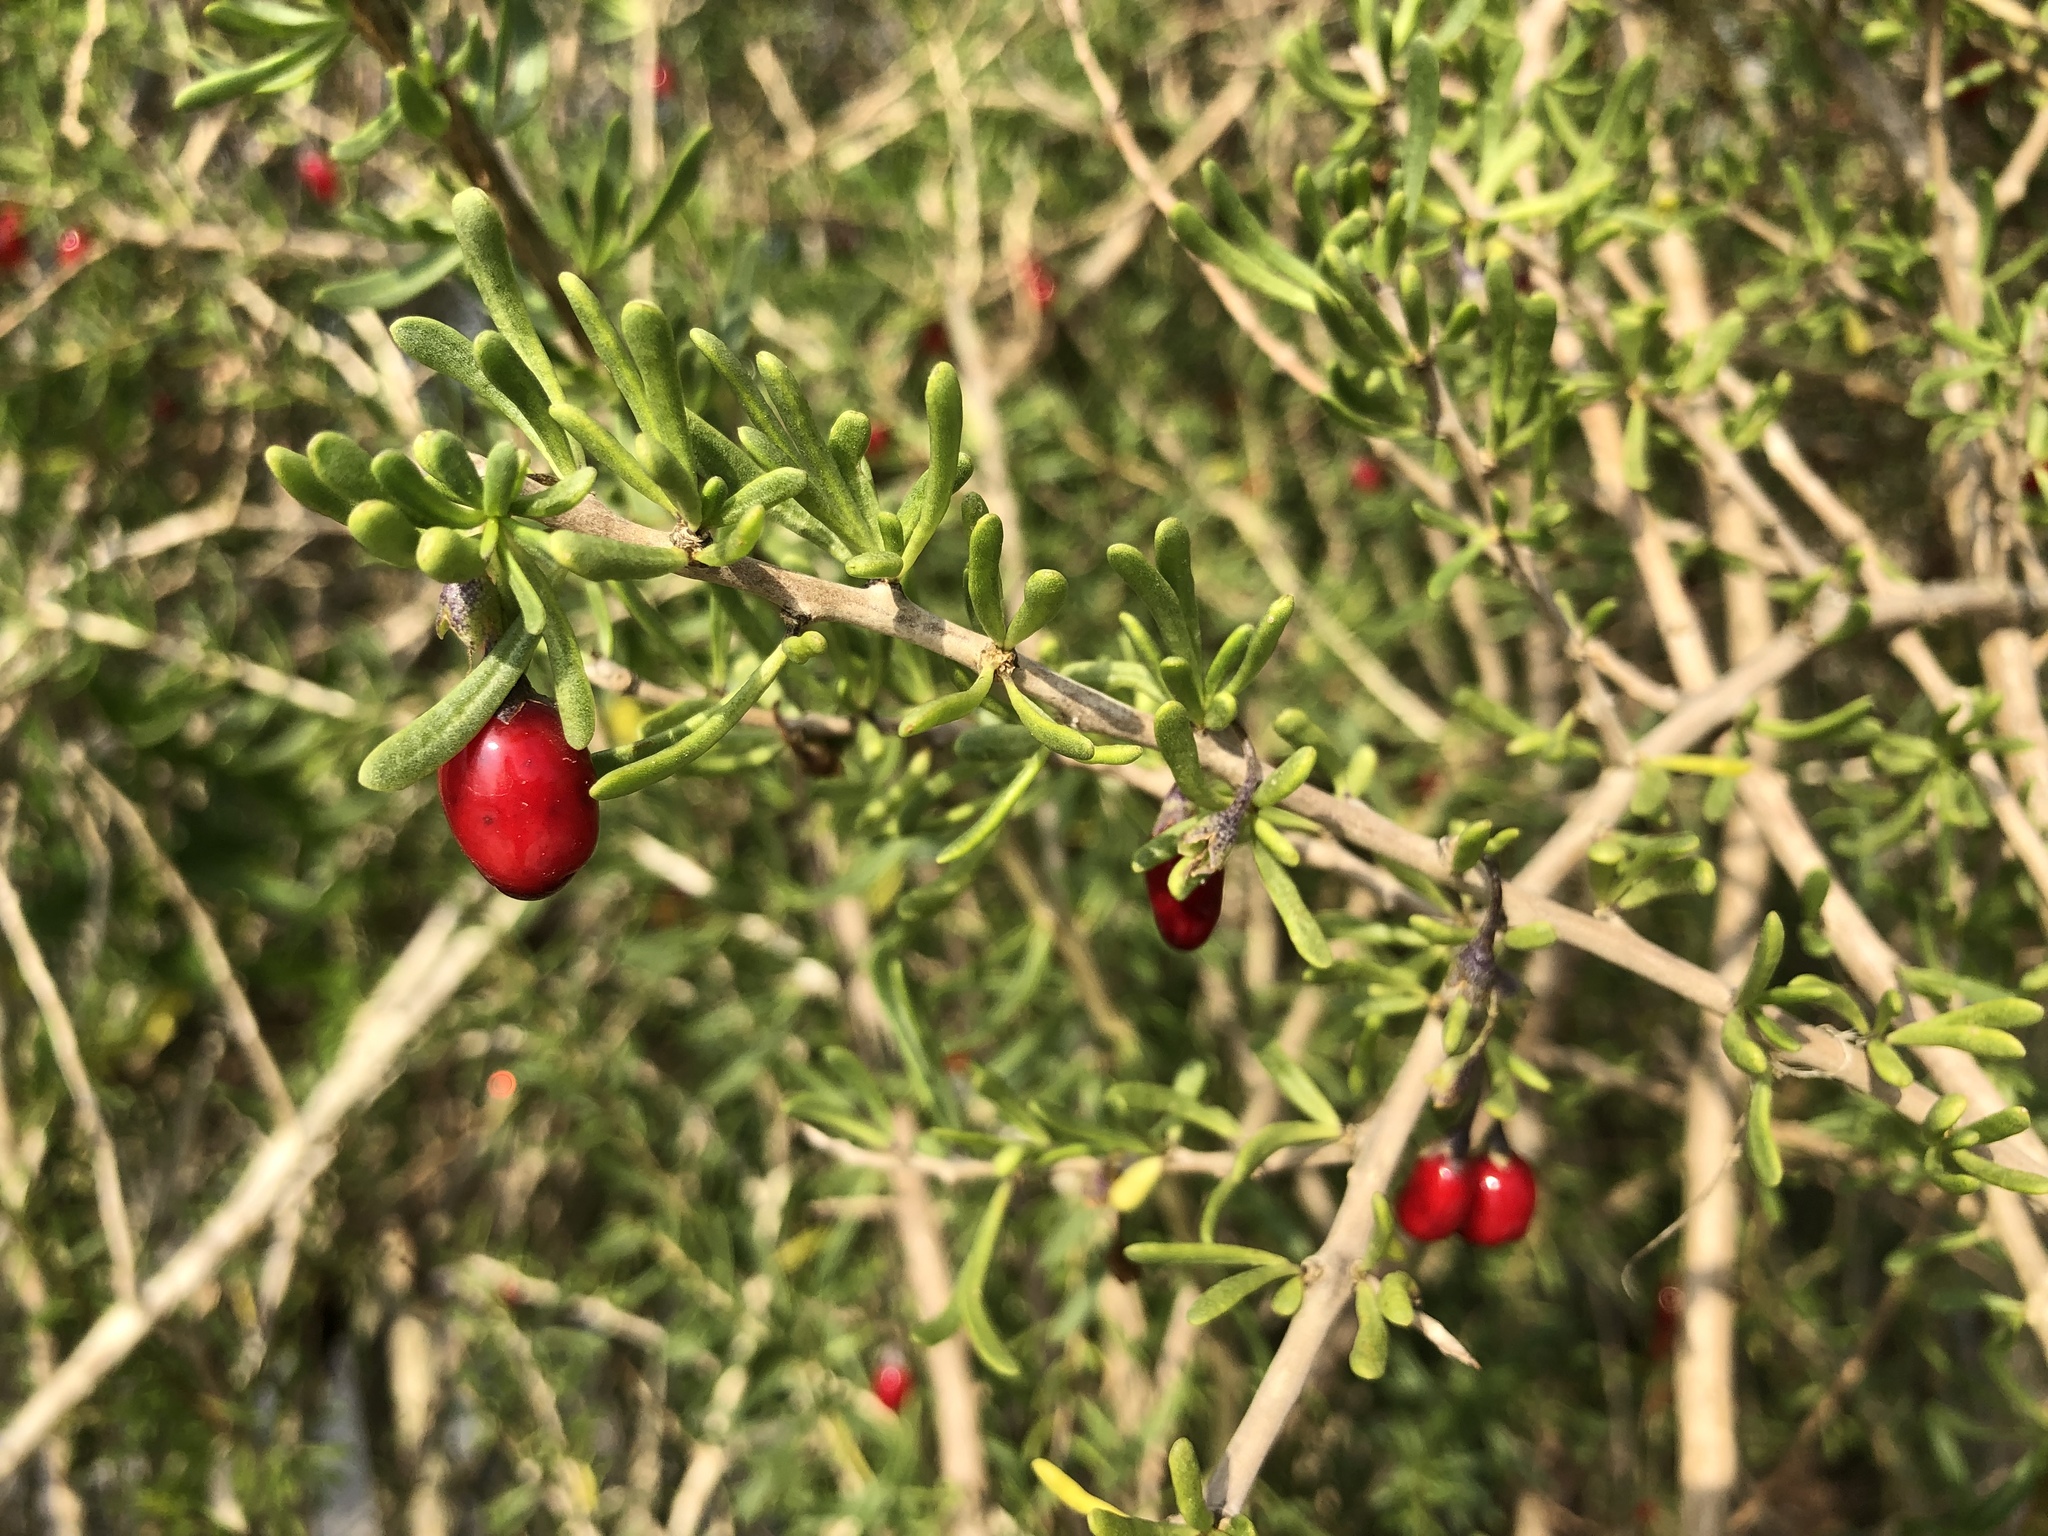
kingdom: Plantae
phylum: Tracheophyta
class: Magnoliopsida
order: Solanales
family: Solanaceae
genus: Lycium
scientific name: Lycium carolinianum
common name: Christmasberry
